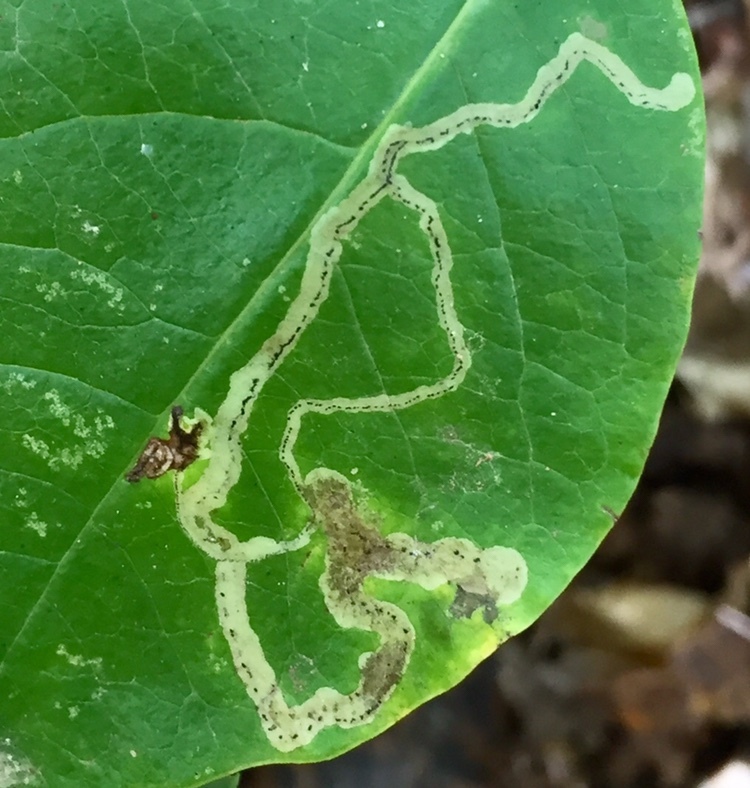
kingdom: Animalia
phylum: Arthropoda
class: Insecta
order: Diptera
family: Agromyzidae
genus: Phytomyza
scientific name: Phytomyza sempervirentis
